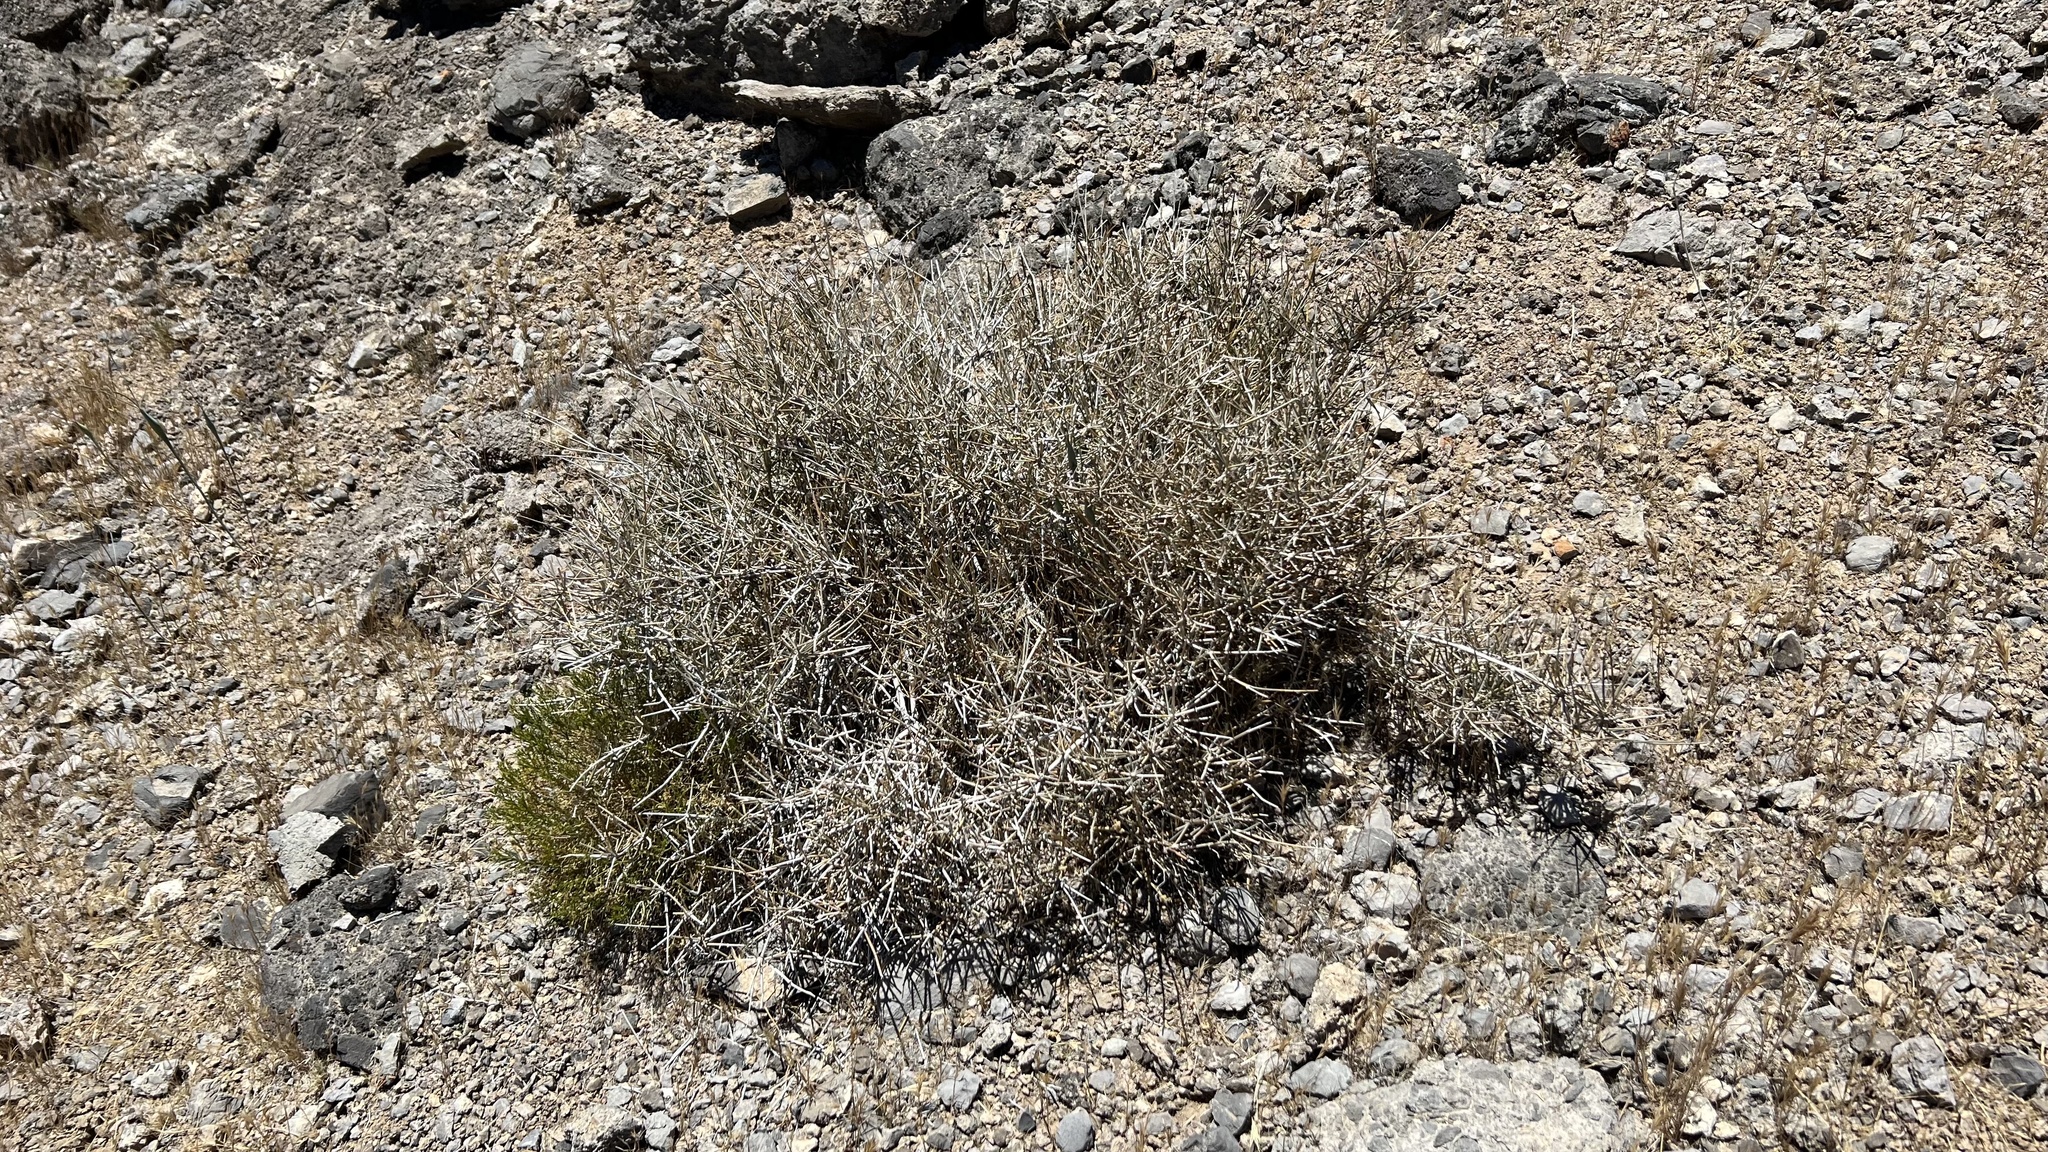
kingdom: Plantae
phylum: Tracheophyta
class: Gnetopsida
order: Ephedrales
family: Ephedraceae
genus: Ephedra
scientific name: Ephedra nevadensis
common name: Gray ephedra
